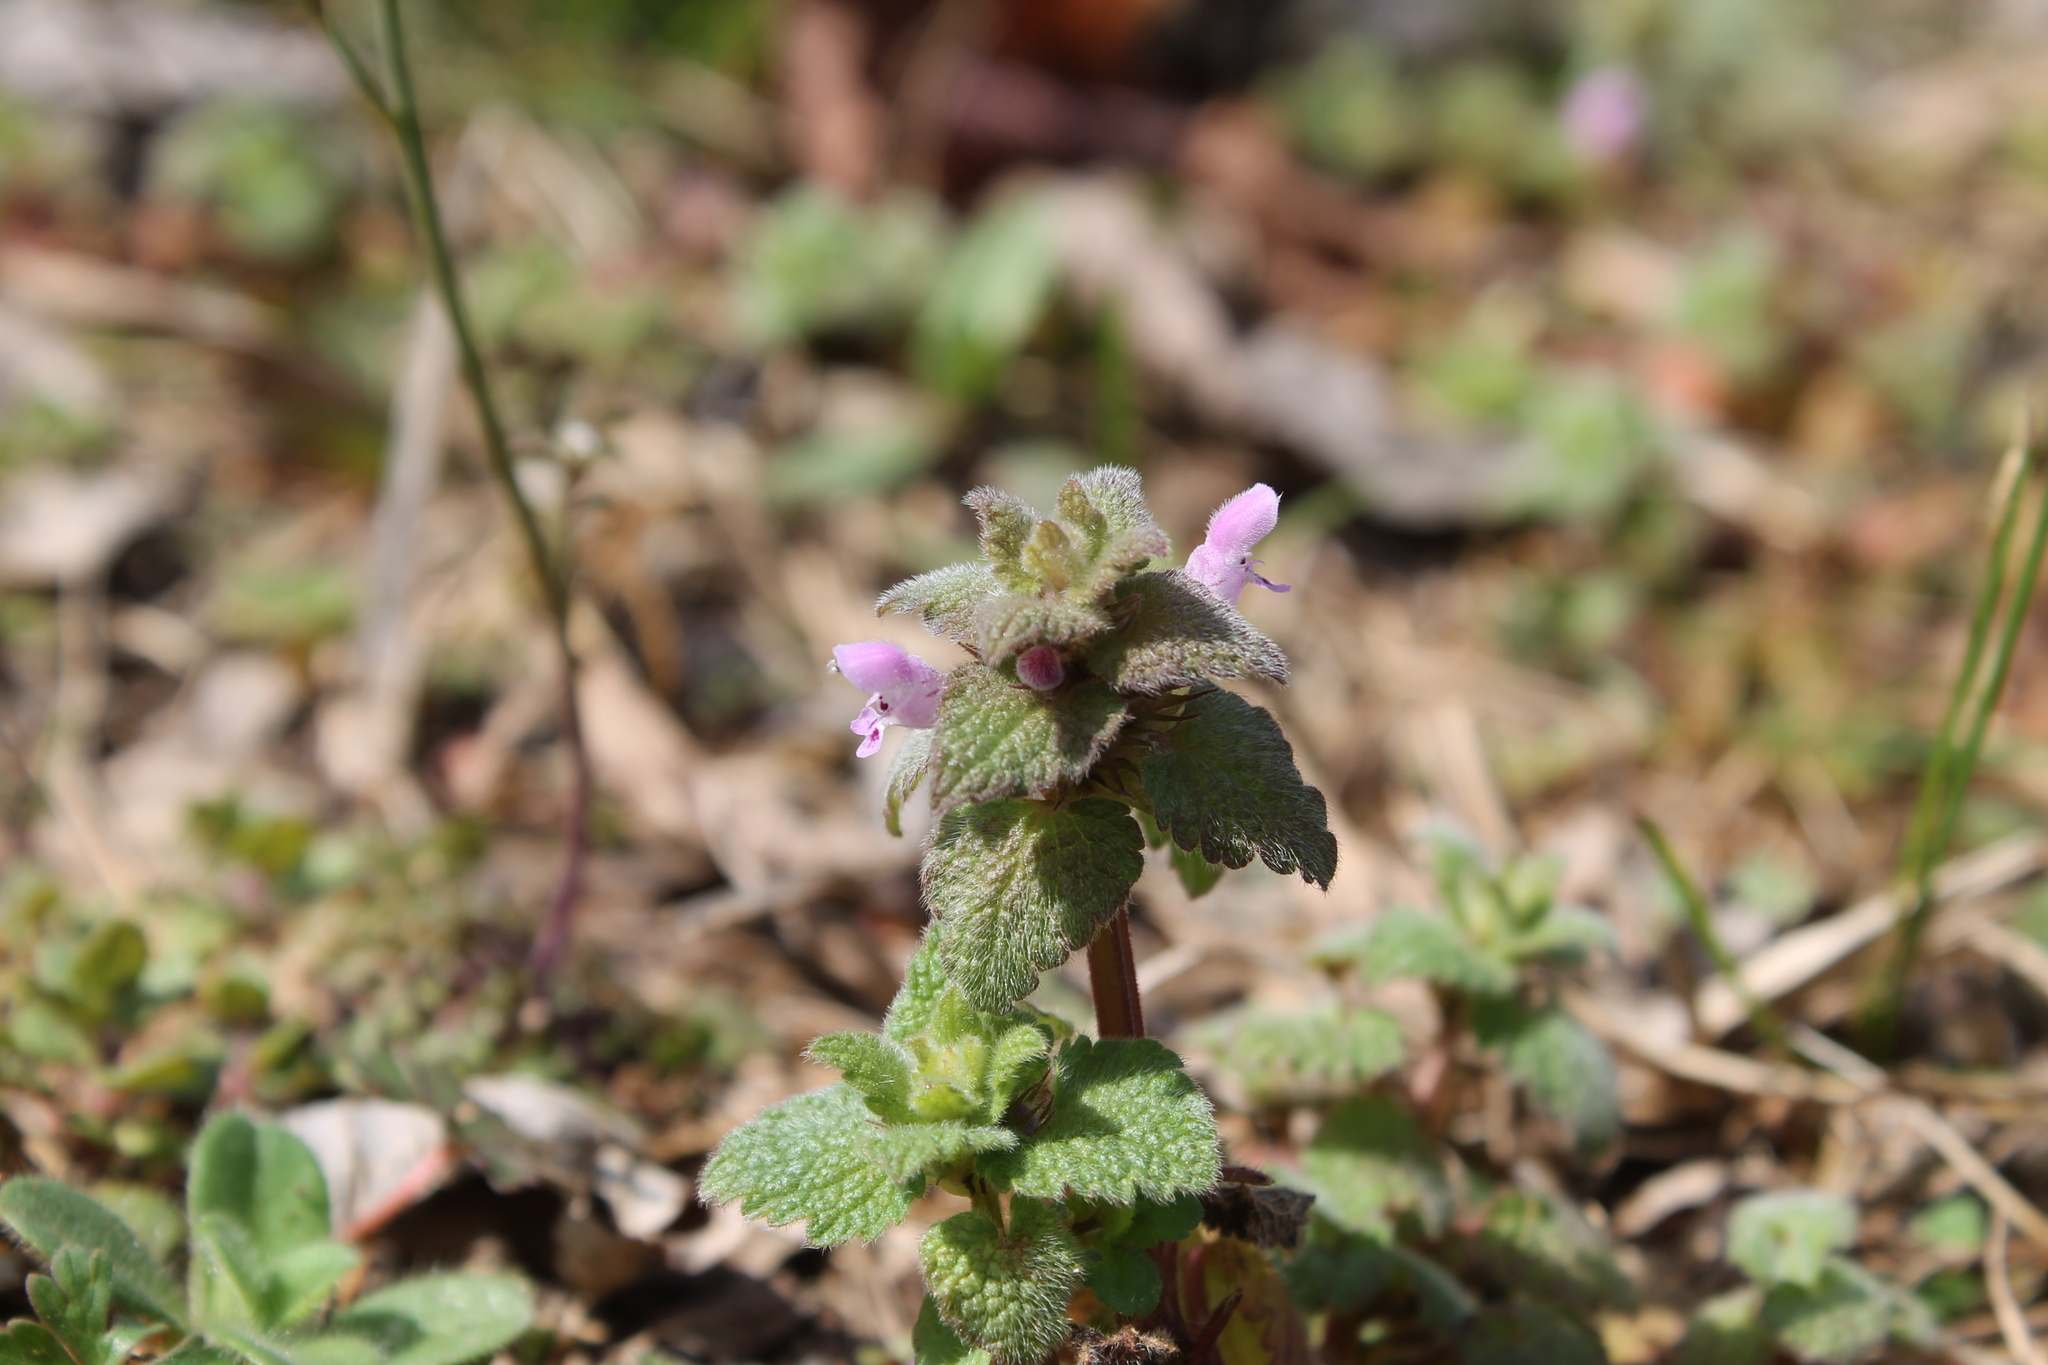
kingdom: Plantae
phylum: Tracheophyta
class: Magnoliopsida
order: Lamiales
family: Lamiaceae
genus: Lamium
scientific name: Lamium purpureum
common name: Red dead-nettle
